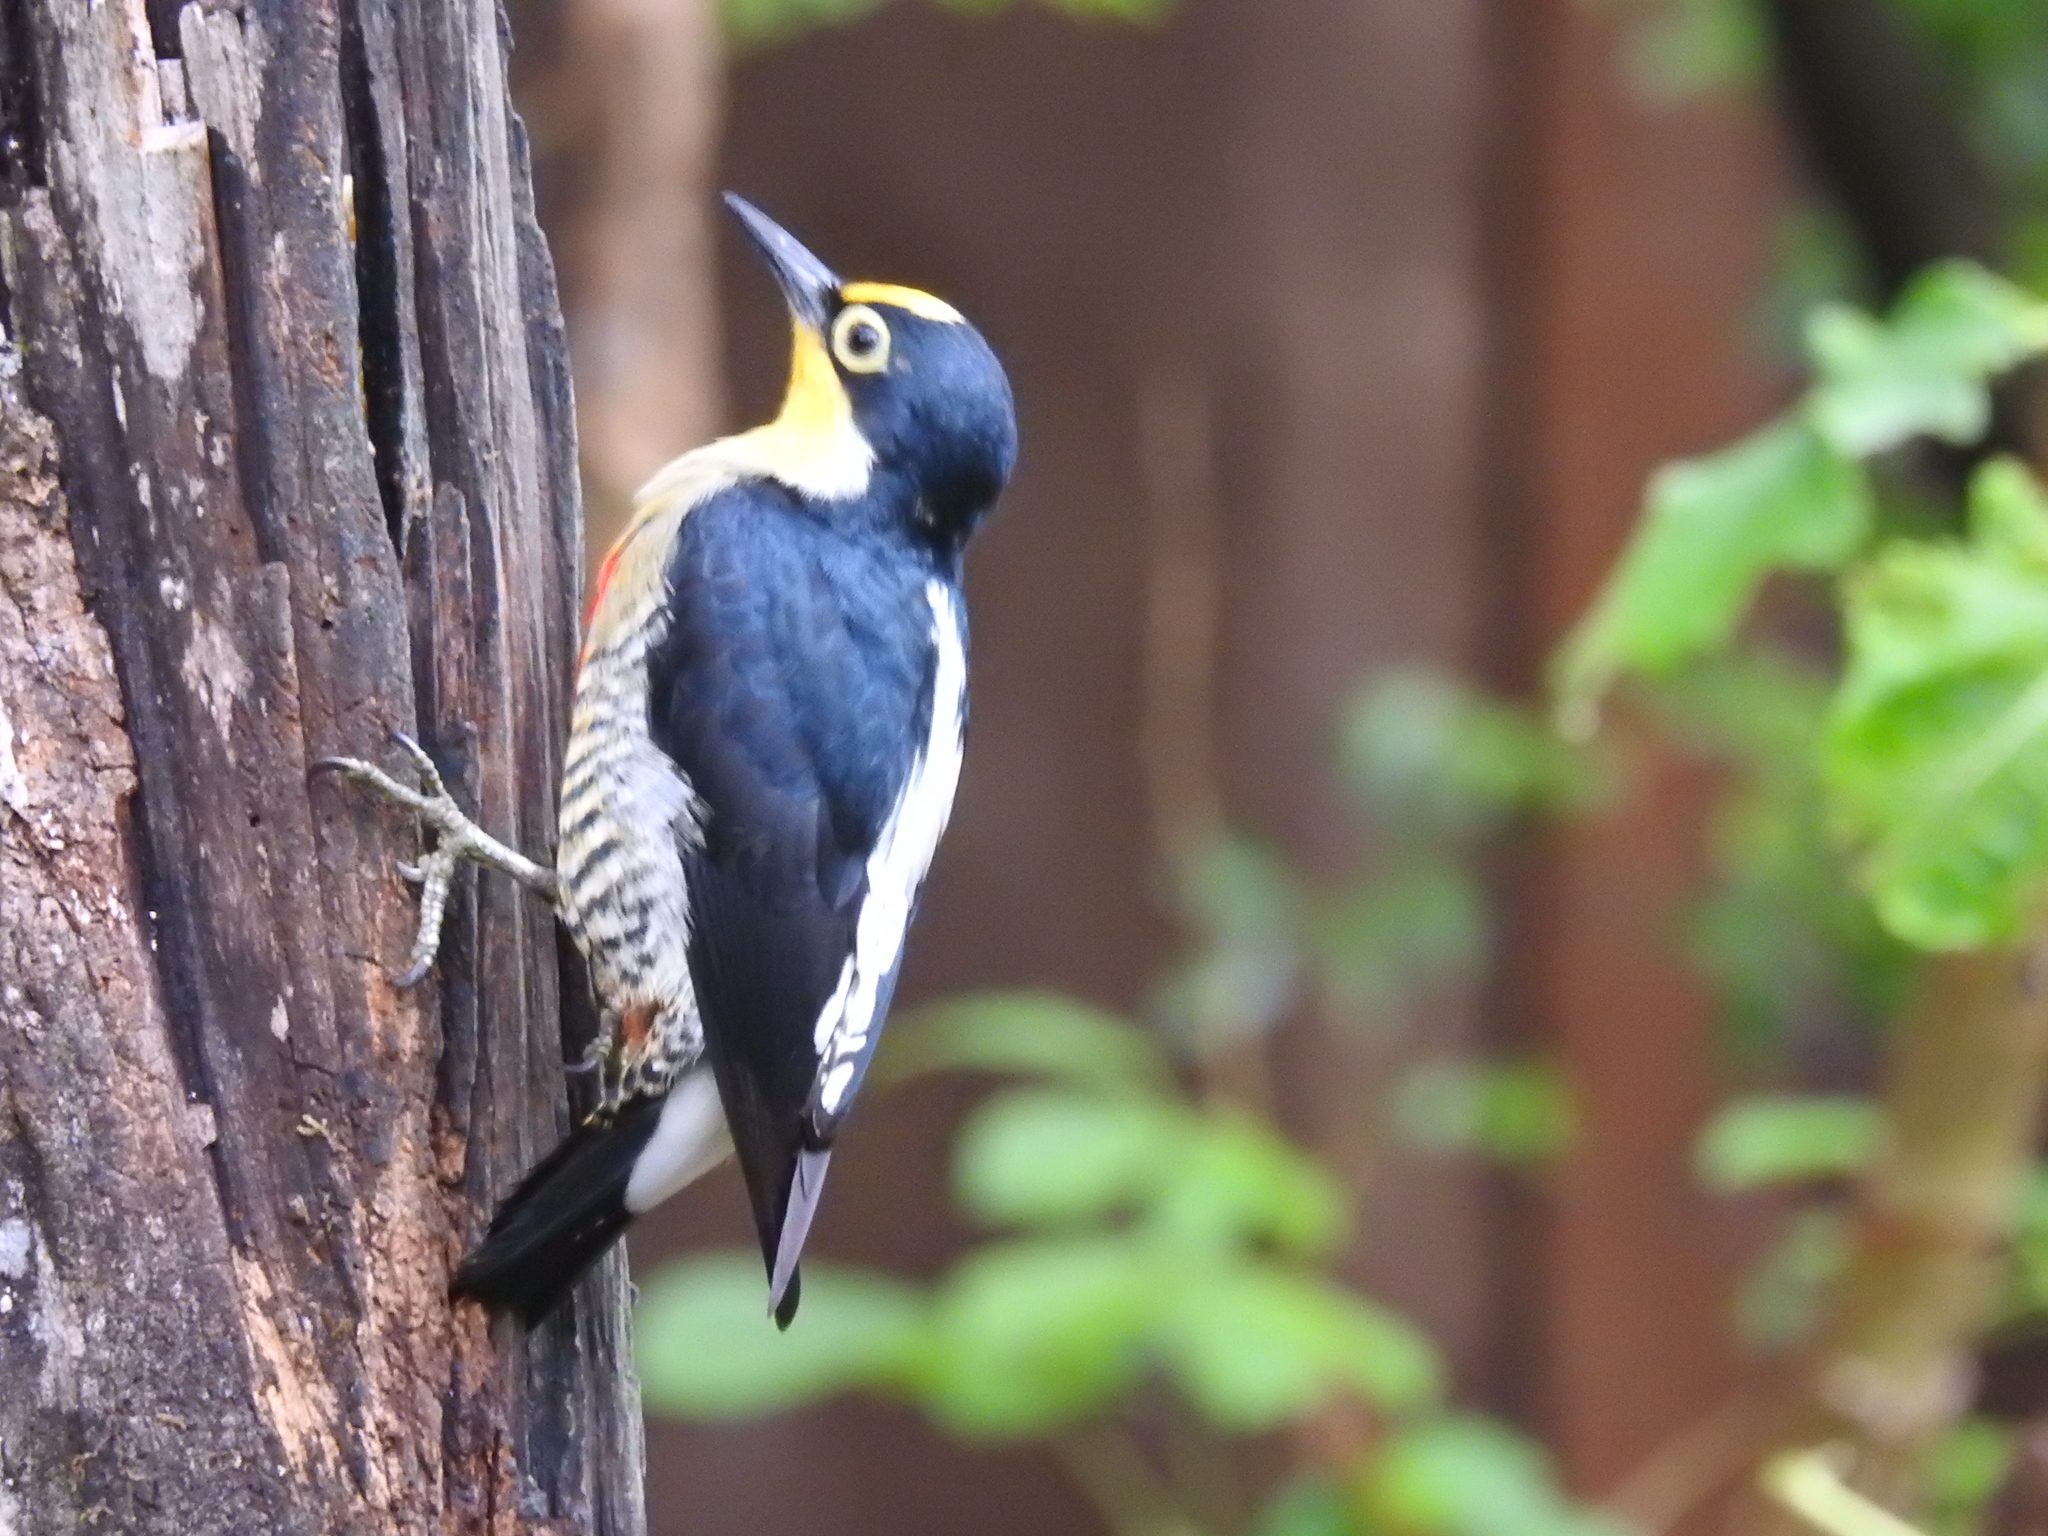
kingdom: Animalia
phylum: Chordata
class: Aves
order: Piciformes
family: Picidae
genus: Melanerpes
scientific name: Melanerpes flavifrons
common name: Yellow-fronted woodpecker
